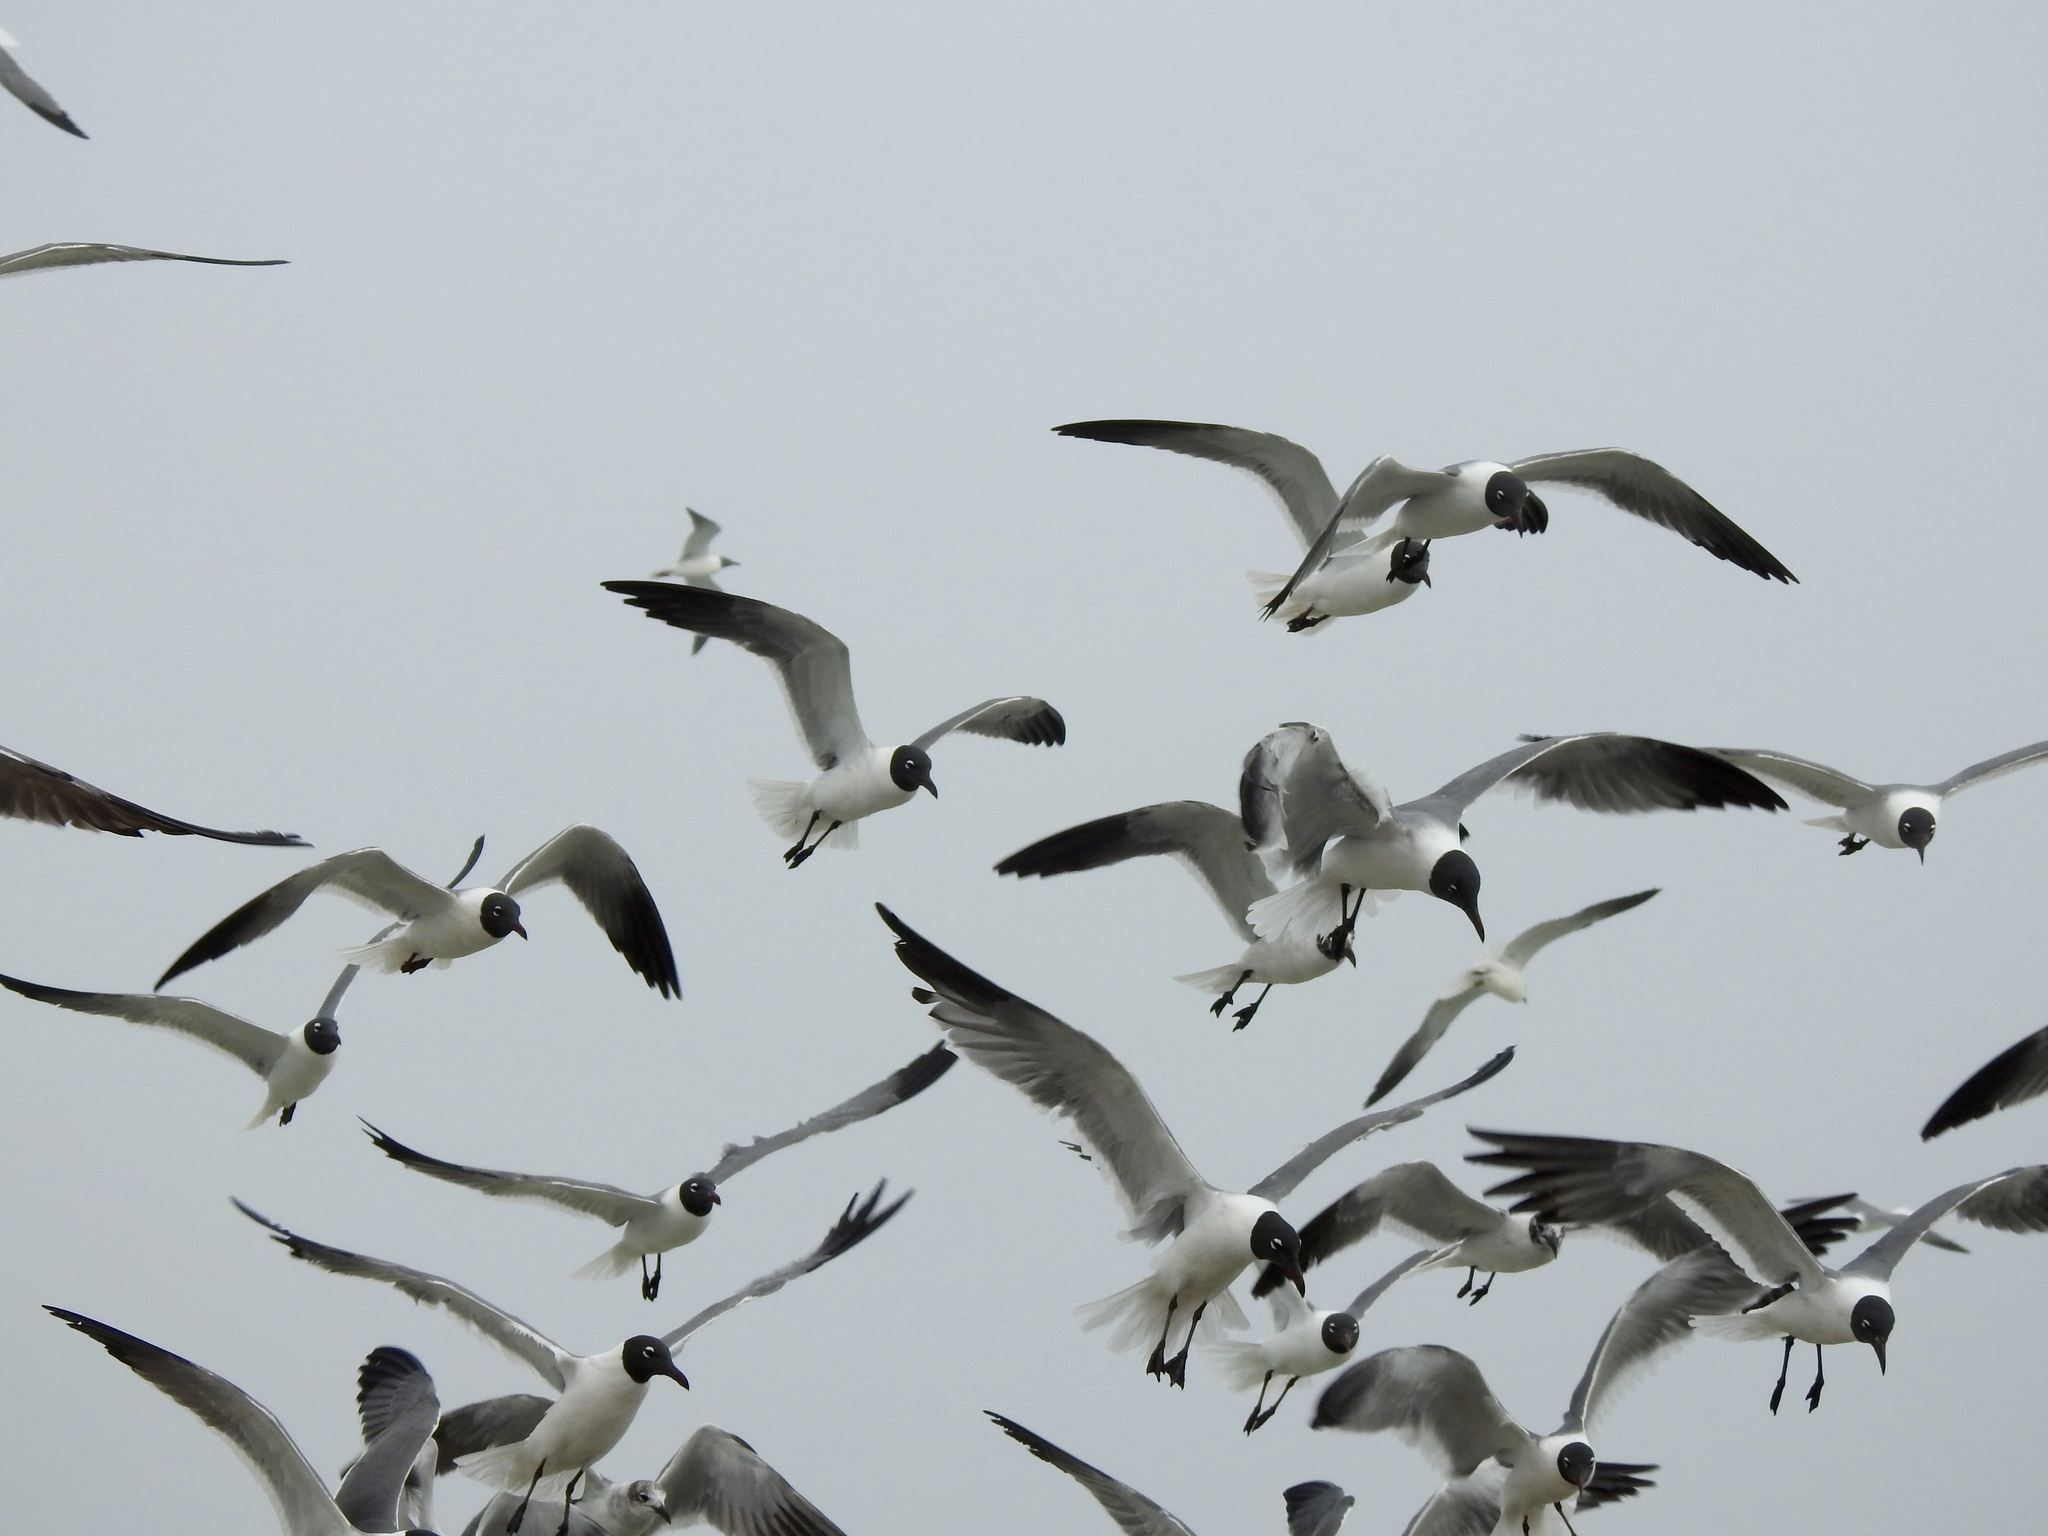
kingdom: Animalia
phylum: Chordata
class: Aves
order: Charadriiformes
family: Laridae
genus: Leucophaeus
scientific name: Leucophaeus atricilla
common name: Laughing gull
